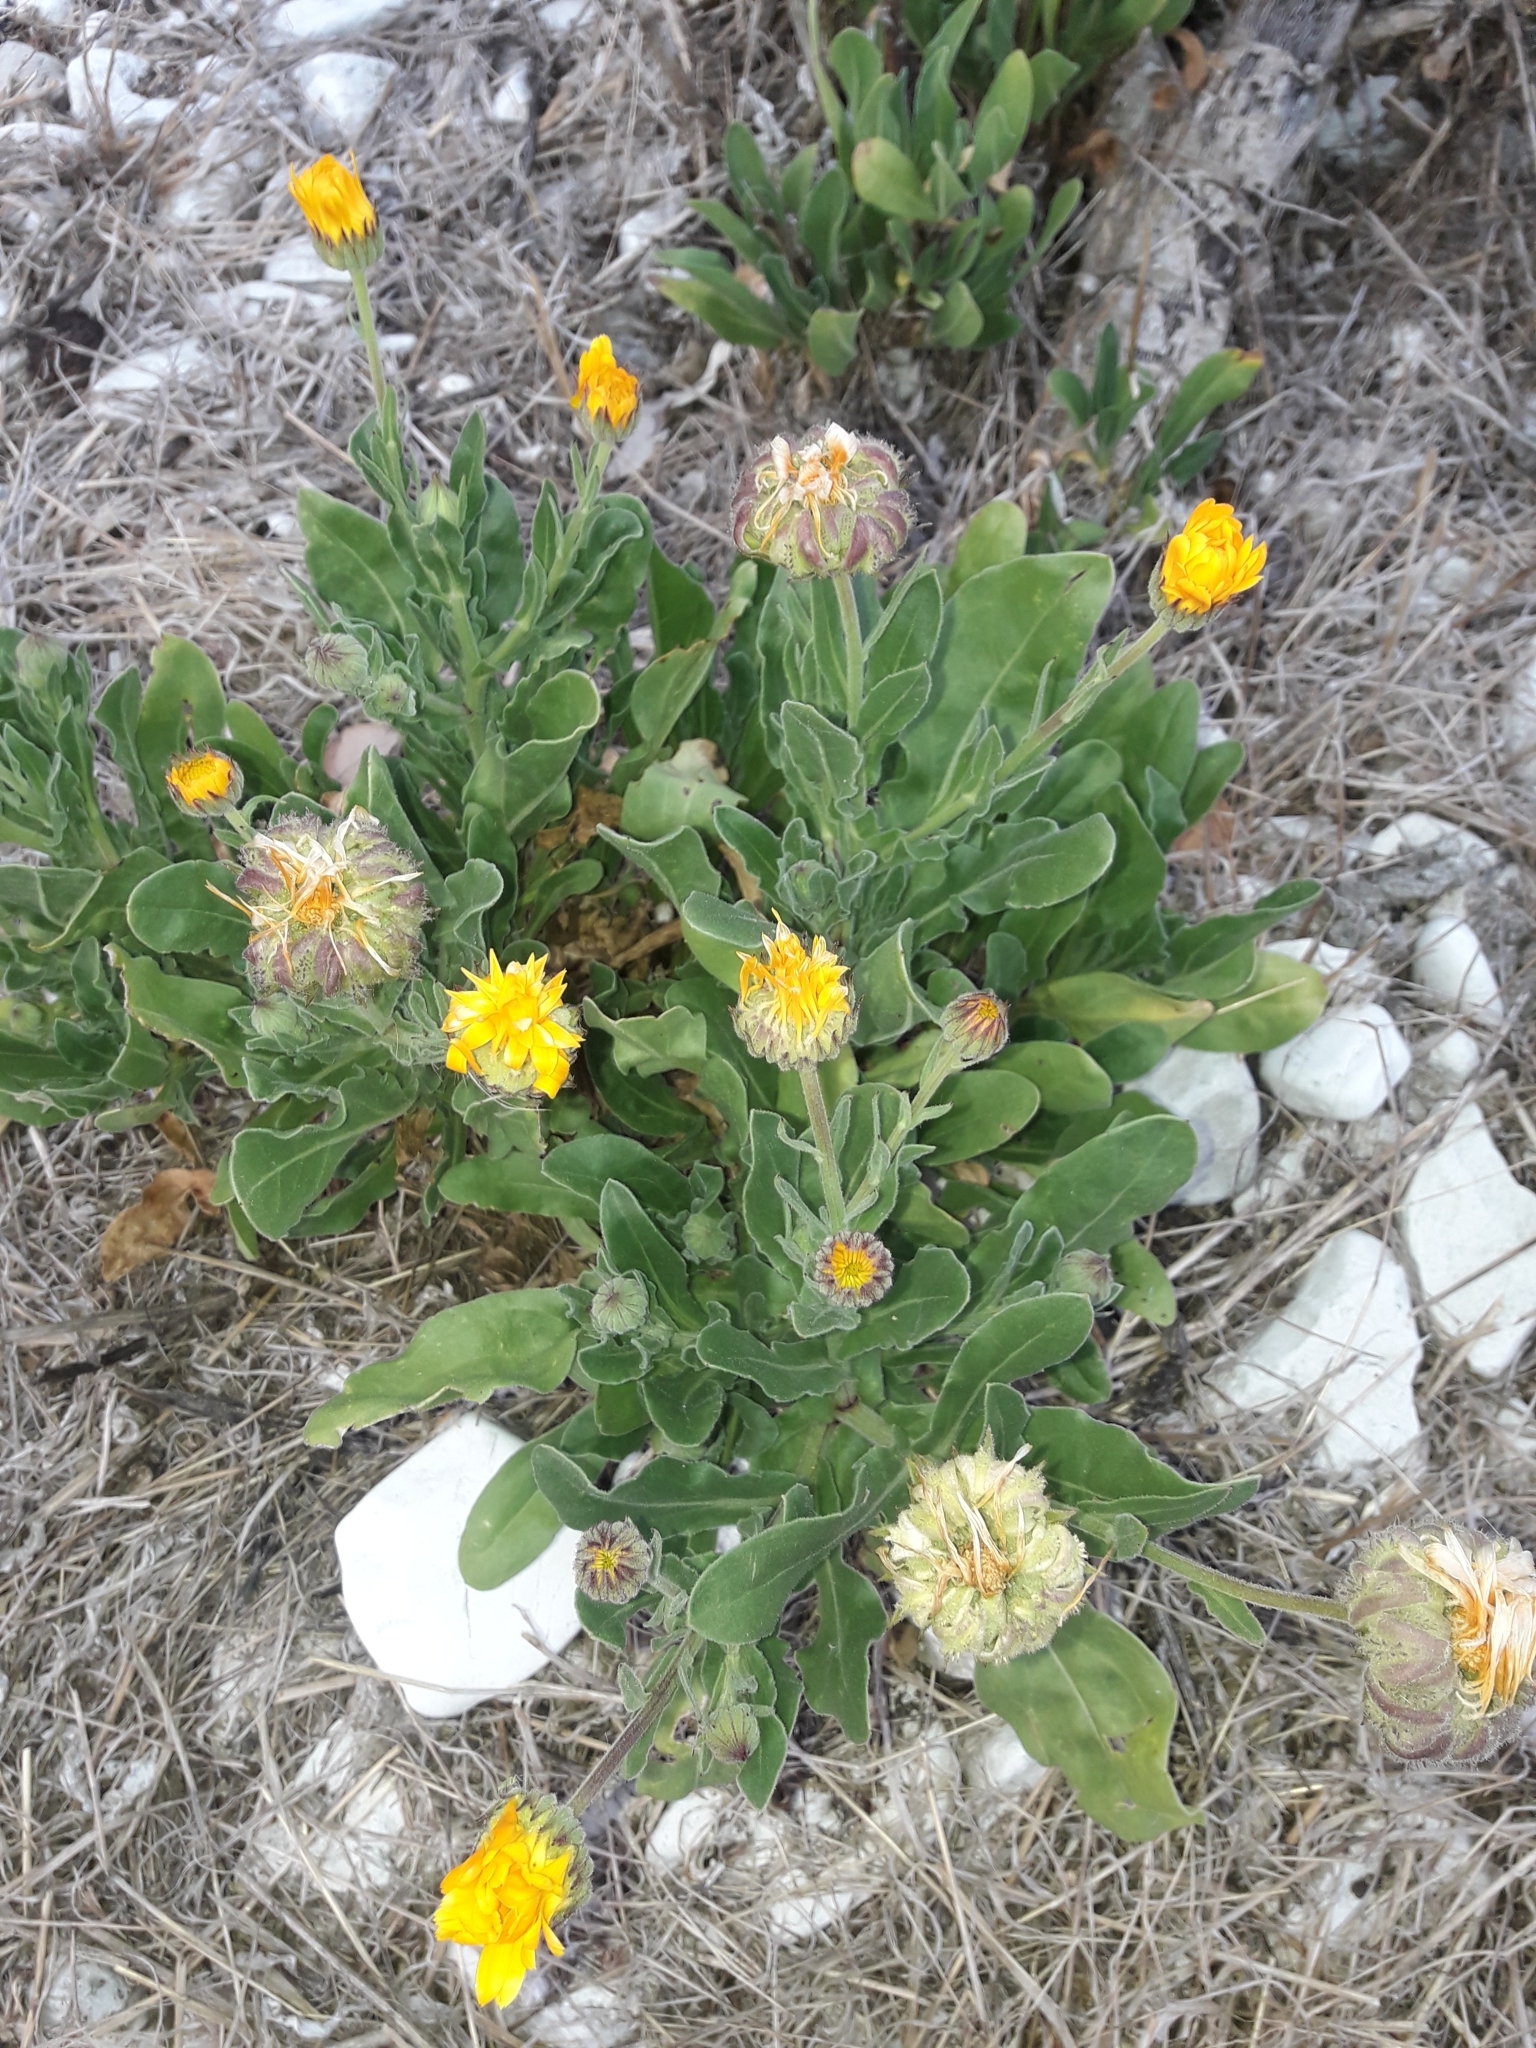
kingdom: Plantae
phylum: Tracheophyta
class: Magnoliopsida
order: Asterales
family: Asteraceae
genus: Calendula
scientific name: Calendula officinalis
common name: Pot marigold
